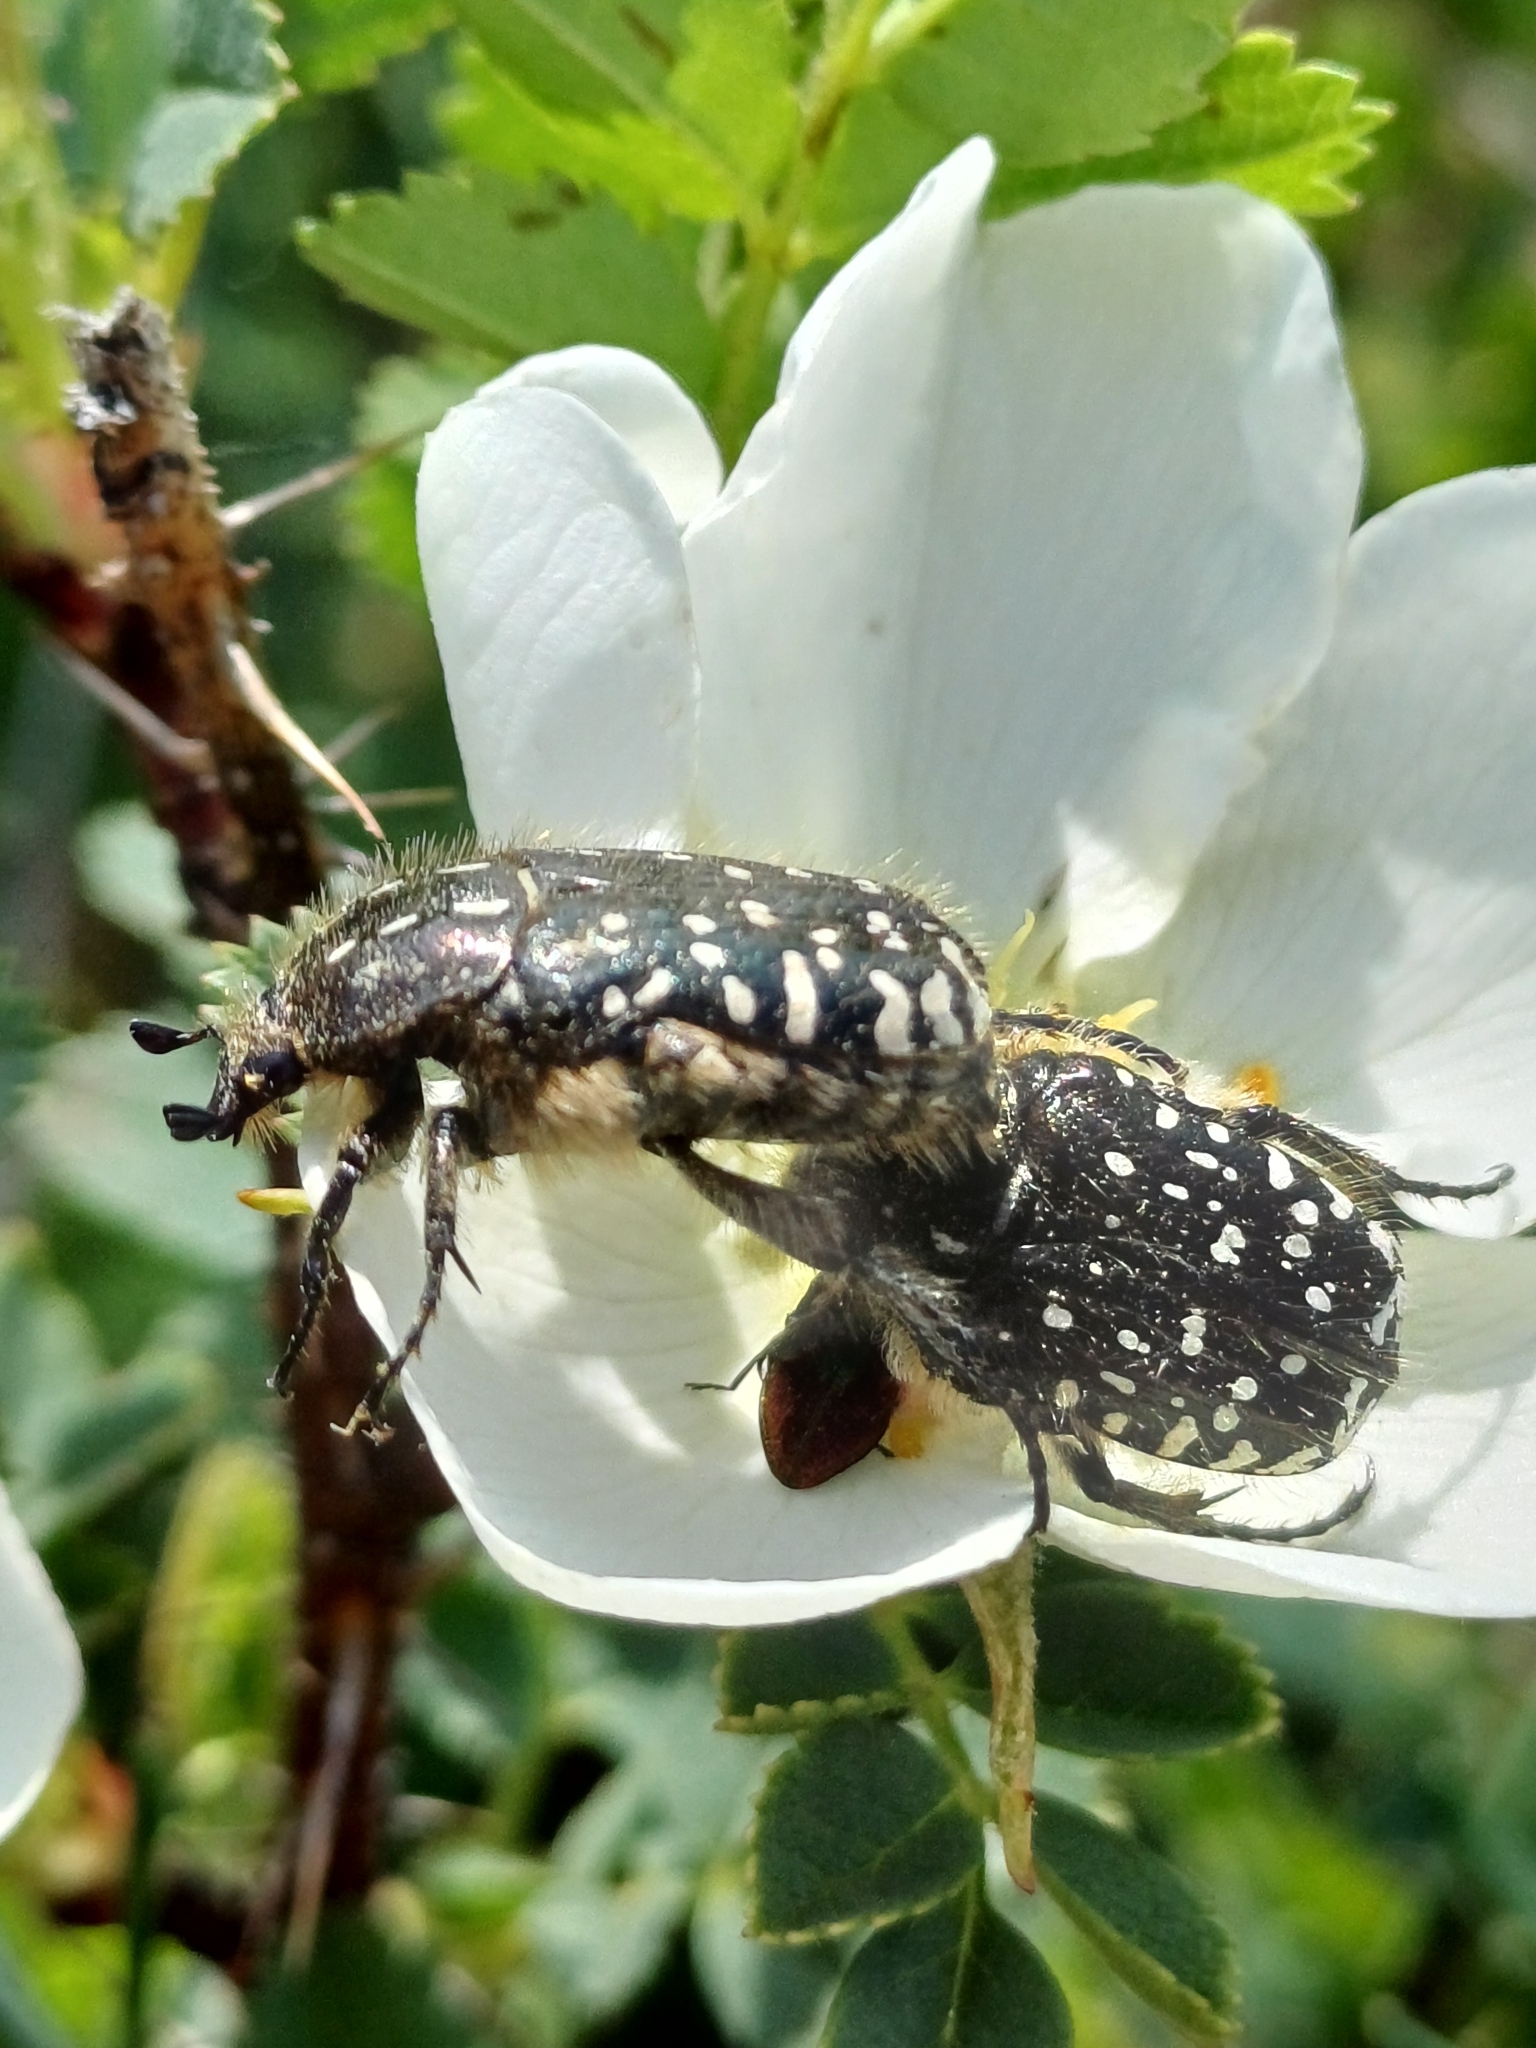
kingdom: Animalia
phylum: Arthropoda
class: Insecta
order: Coleoptera
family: Scarabaeidae
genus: Oxythyrea
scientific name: Oxythyrea funesta
